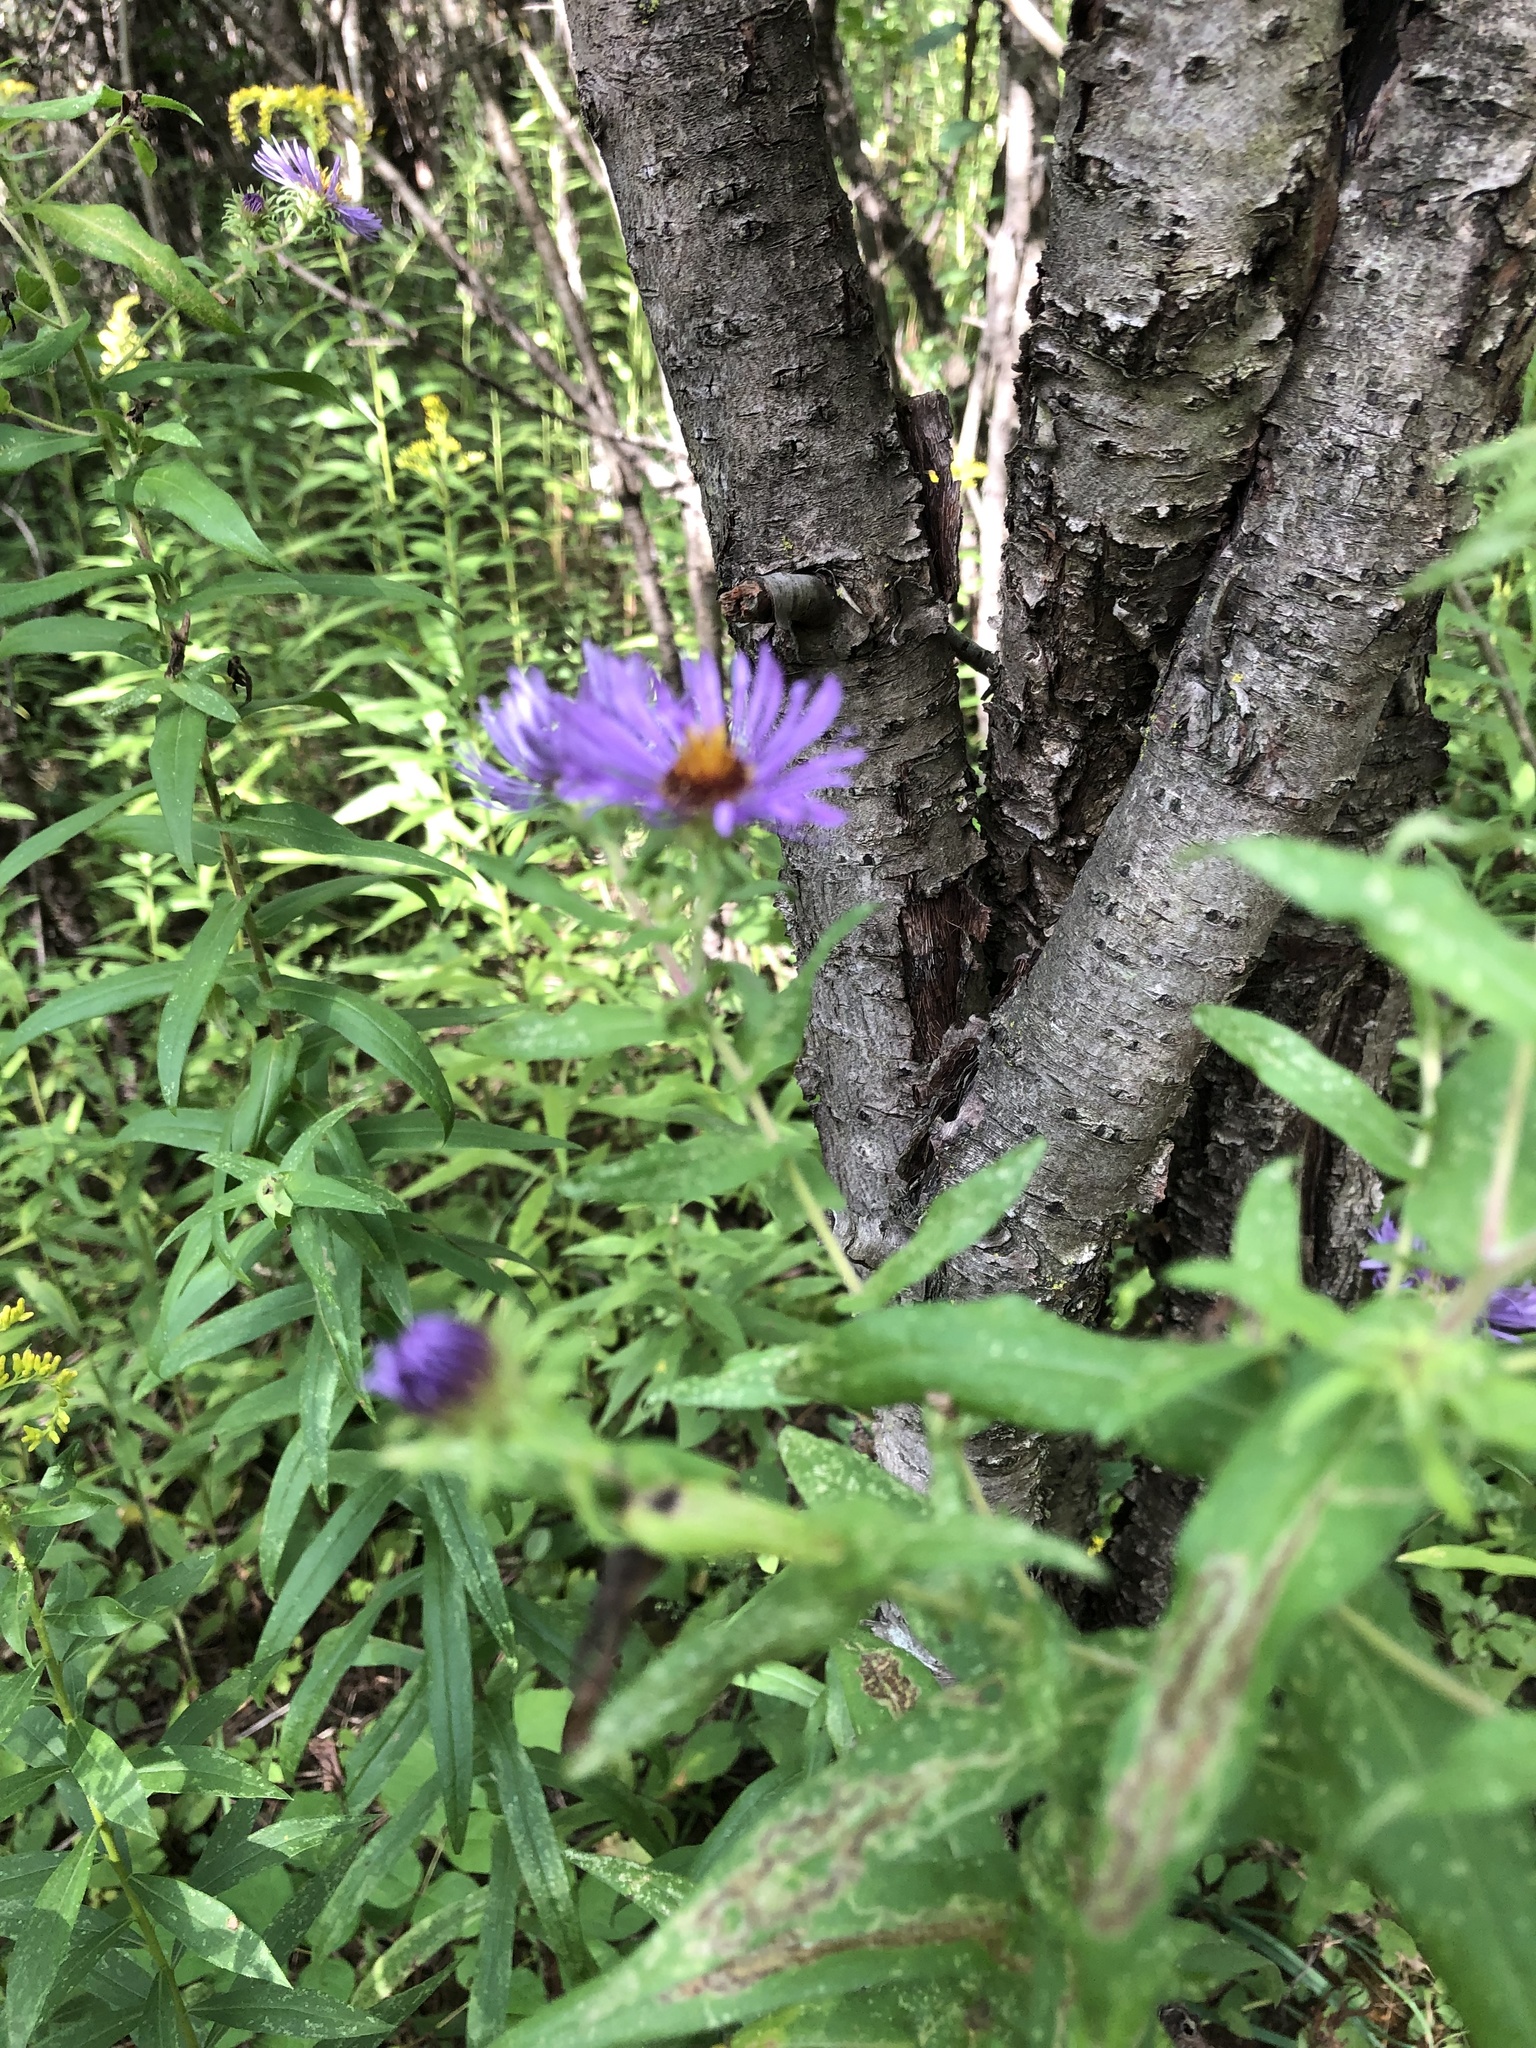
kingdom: Plantae
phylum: Tracheophyta
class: Magnoliopsida
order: Asterales
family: Asteraceae
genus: Symphyotrichum
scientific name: Symphyotrichum novae-angliae
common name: Michaelmas daisy
